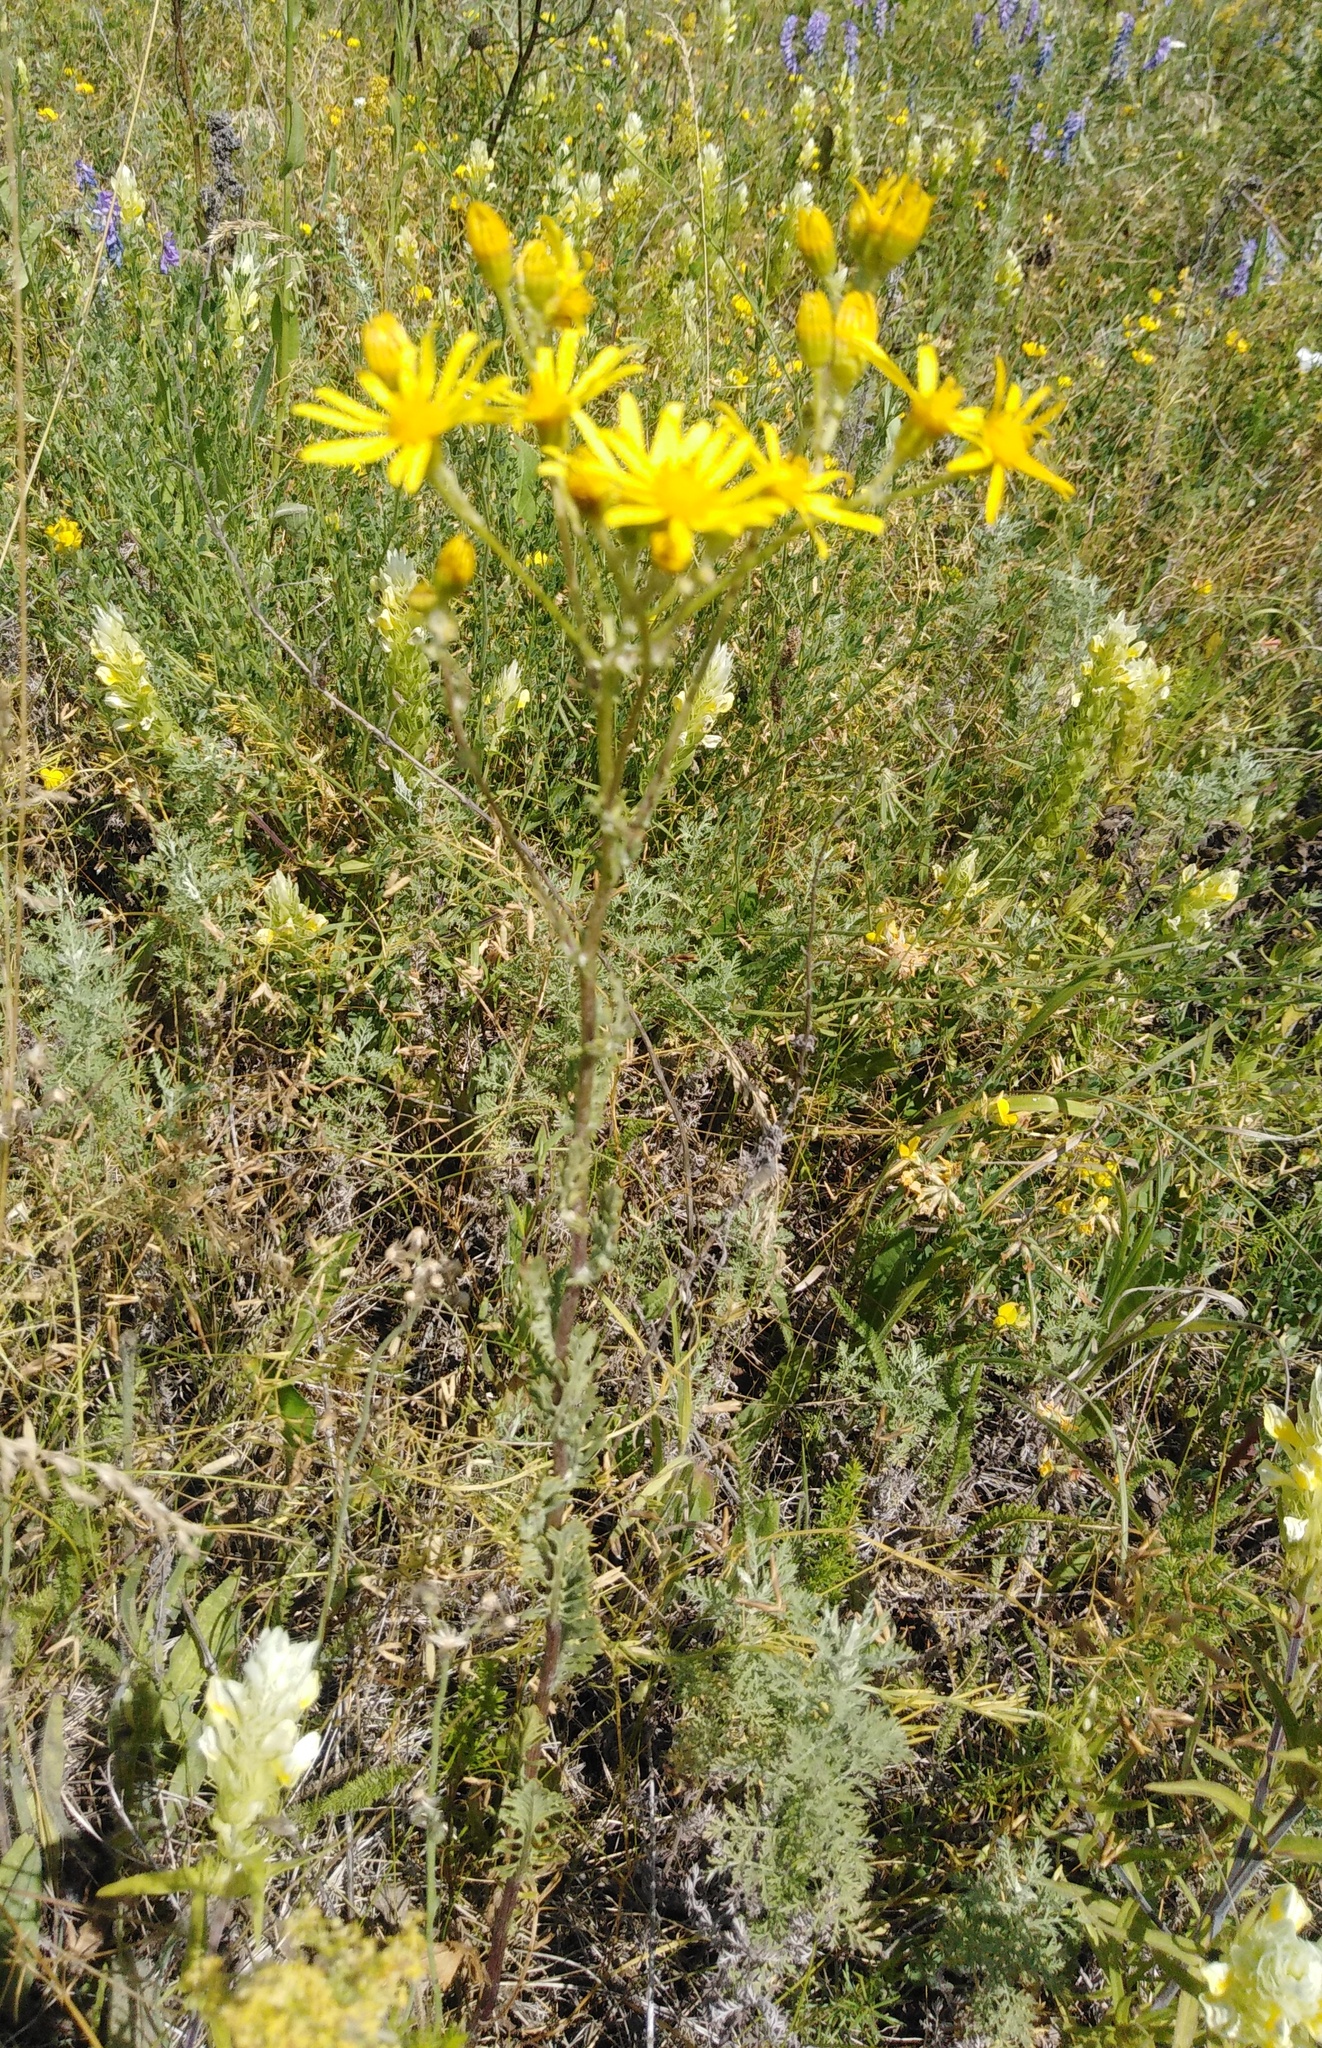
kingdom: Plantae
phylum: Tracheophyta
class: Magnoliopsida
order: Asterales
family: Asteraceae
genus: Jacobaea
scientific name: Jacobaea vulgaris
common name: Stinking willie
